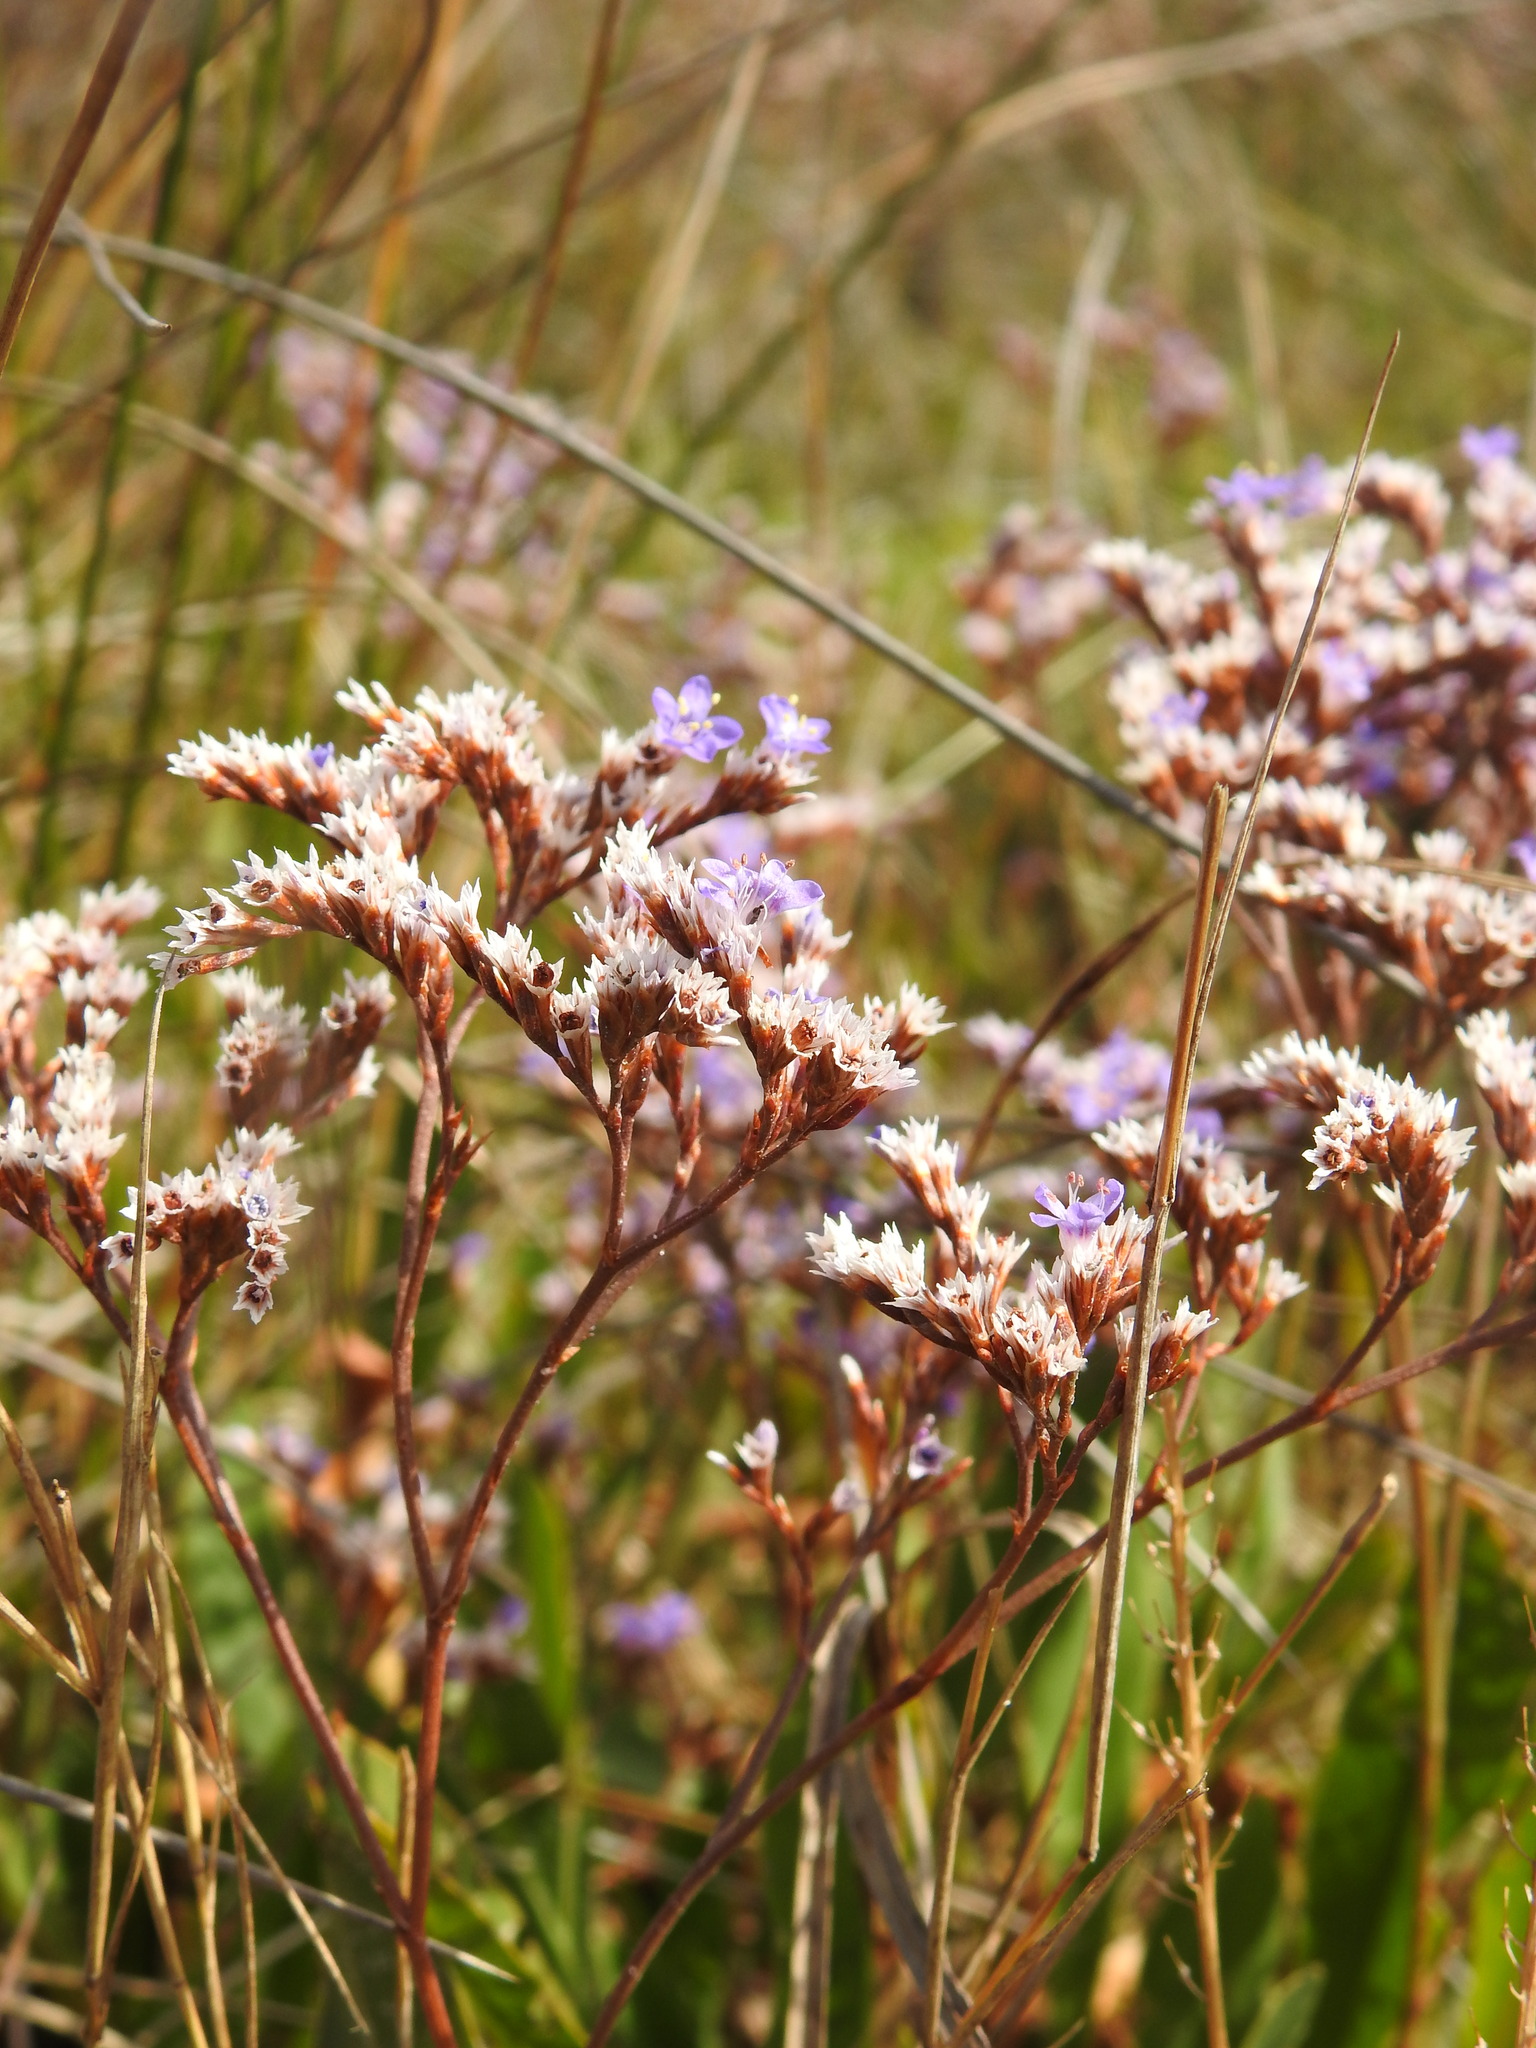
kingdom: Plantae
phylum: Tracheophyta
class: Magnoliopsida
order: Caryophyllales
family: Plumbaginaceae
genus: Limonium
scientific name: Limonium maritimum
